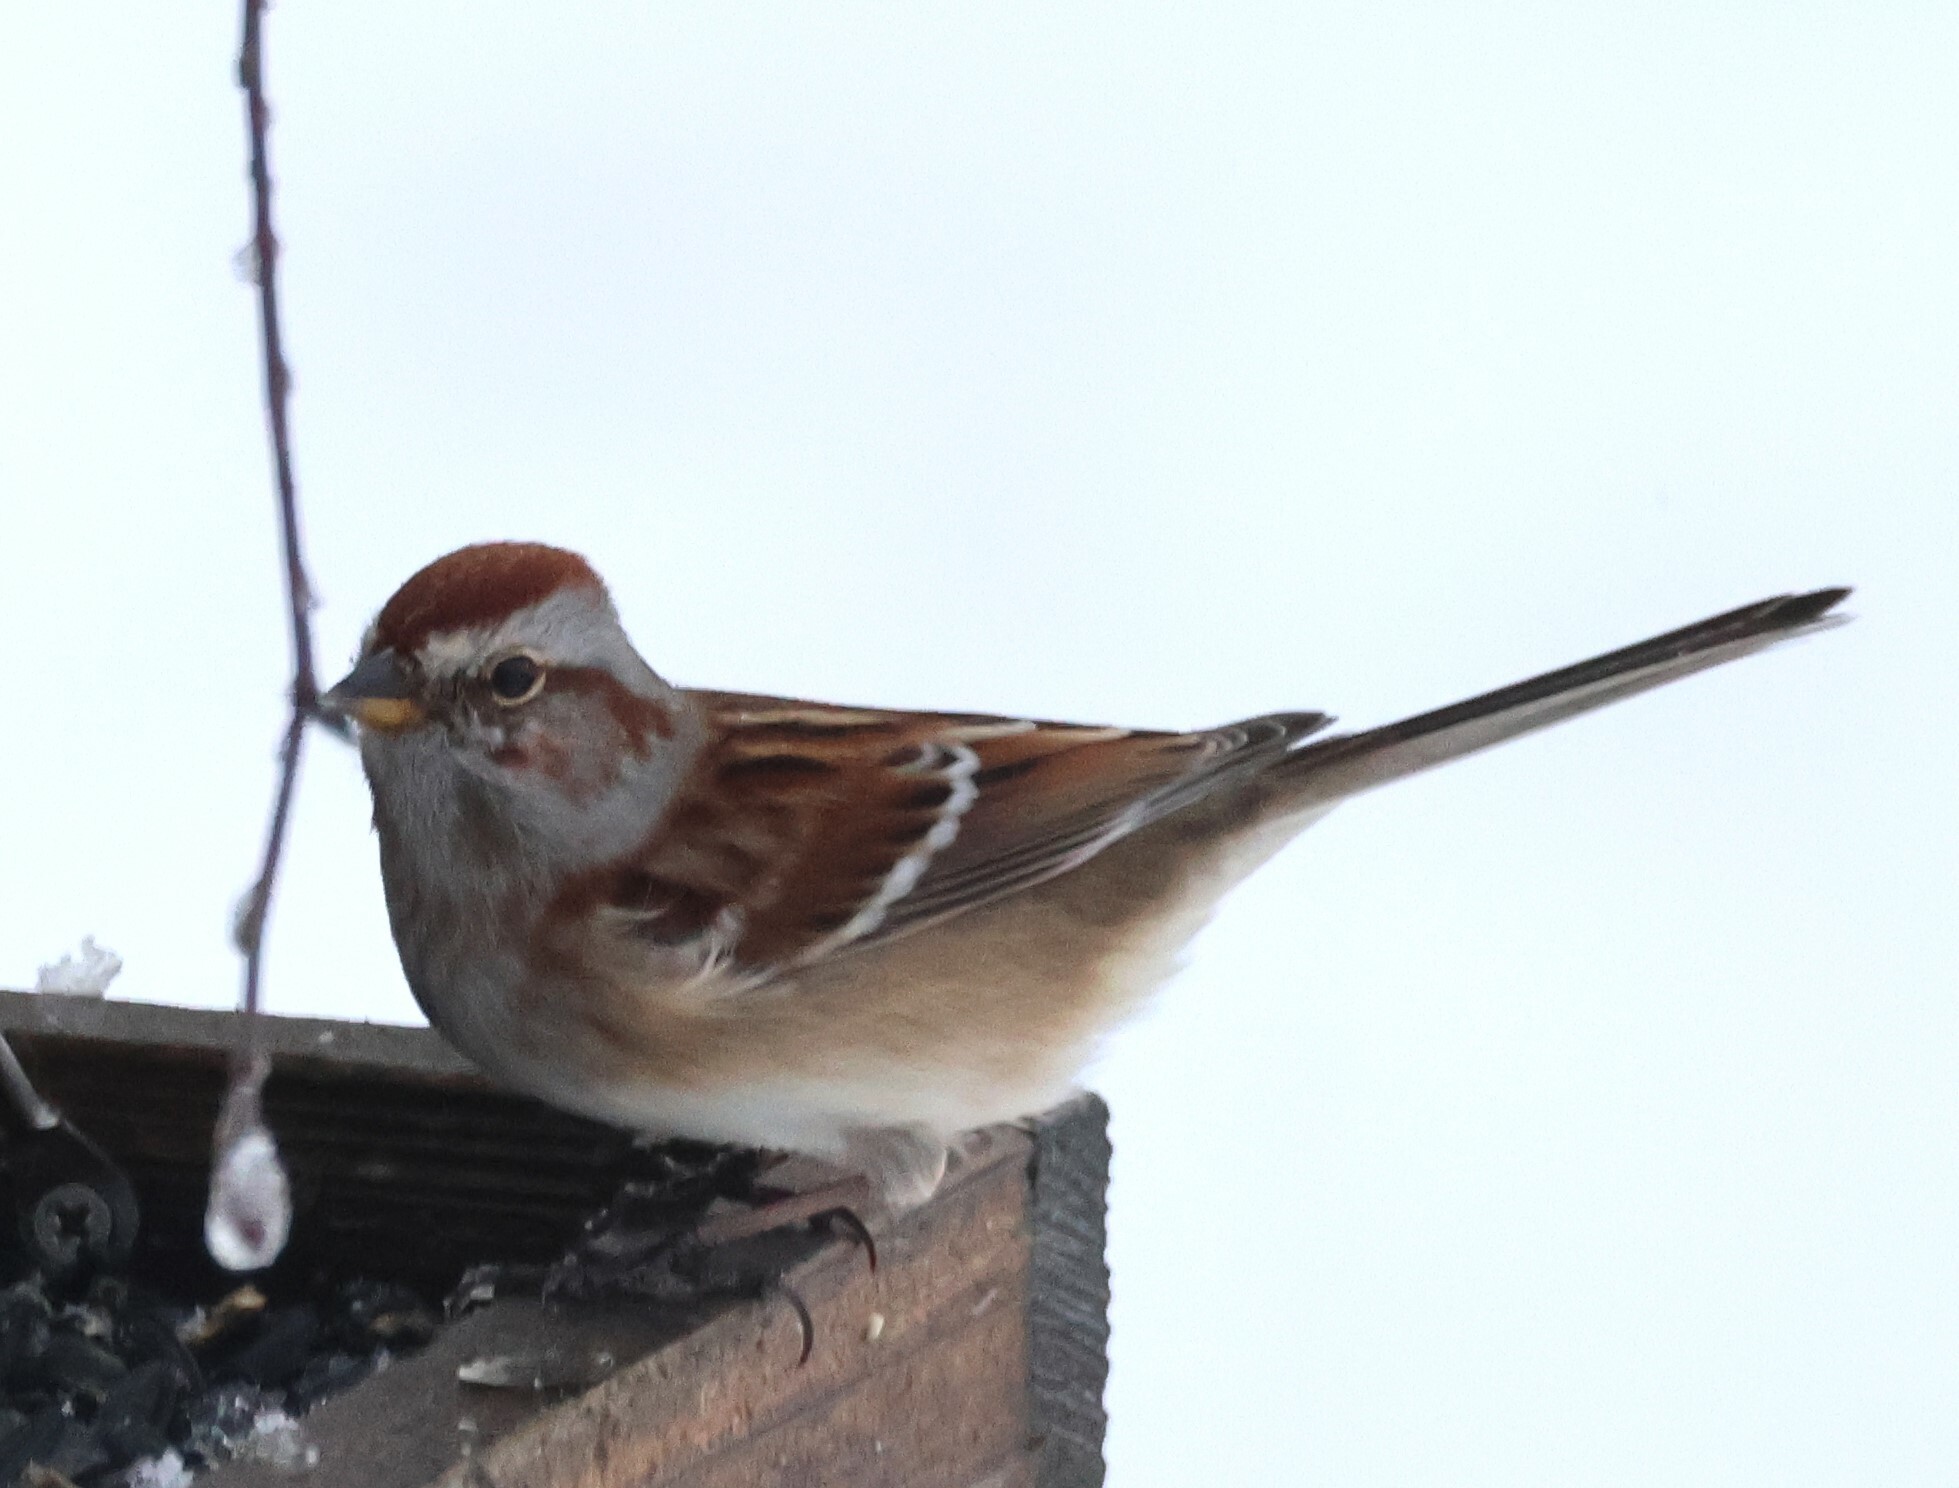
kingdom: Animalia
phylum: Chordata
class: Aves
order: Passeriformes
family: Passerellidae
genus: Spizelloides
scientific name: Spizelloides arborea
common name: American tree sparrow
